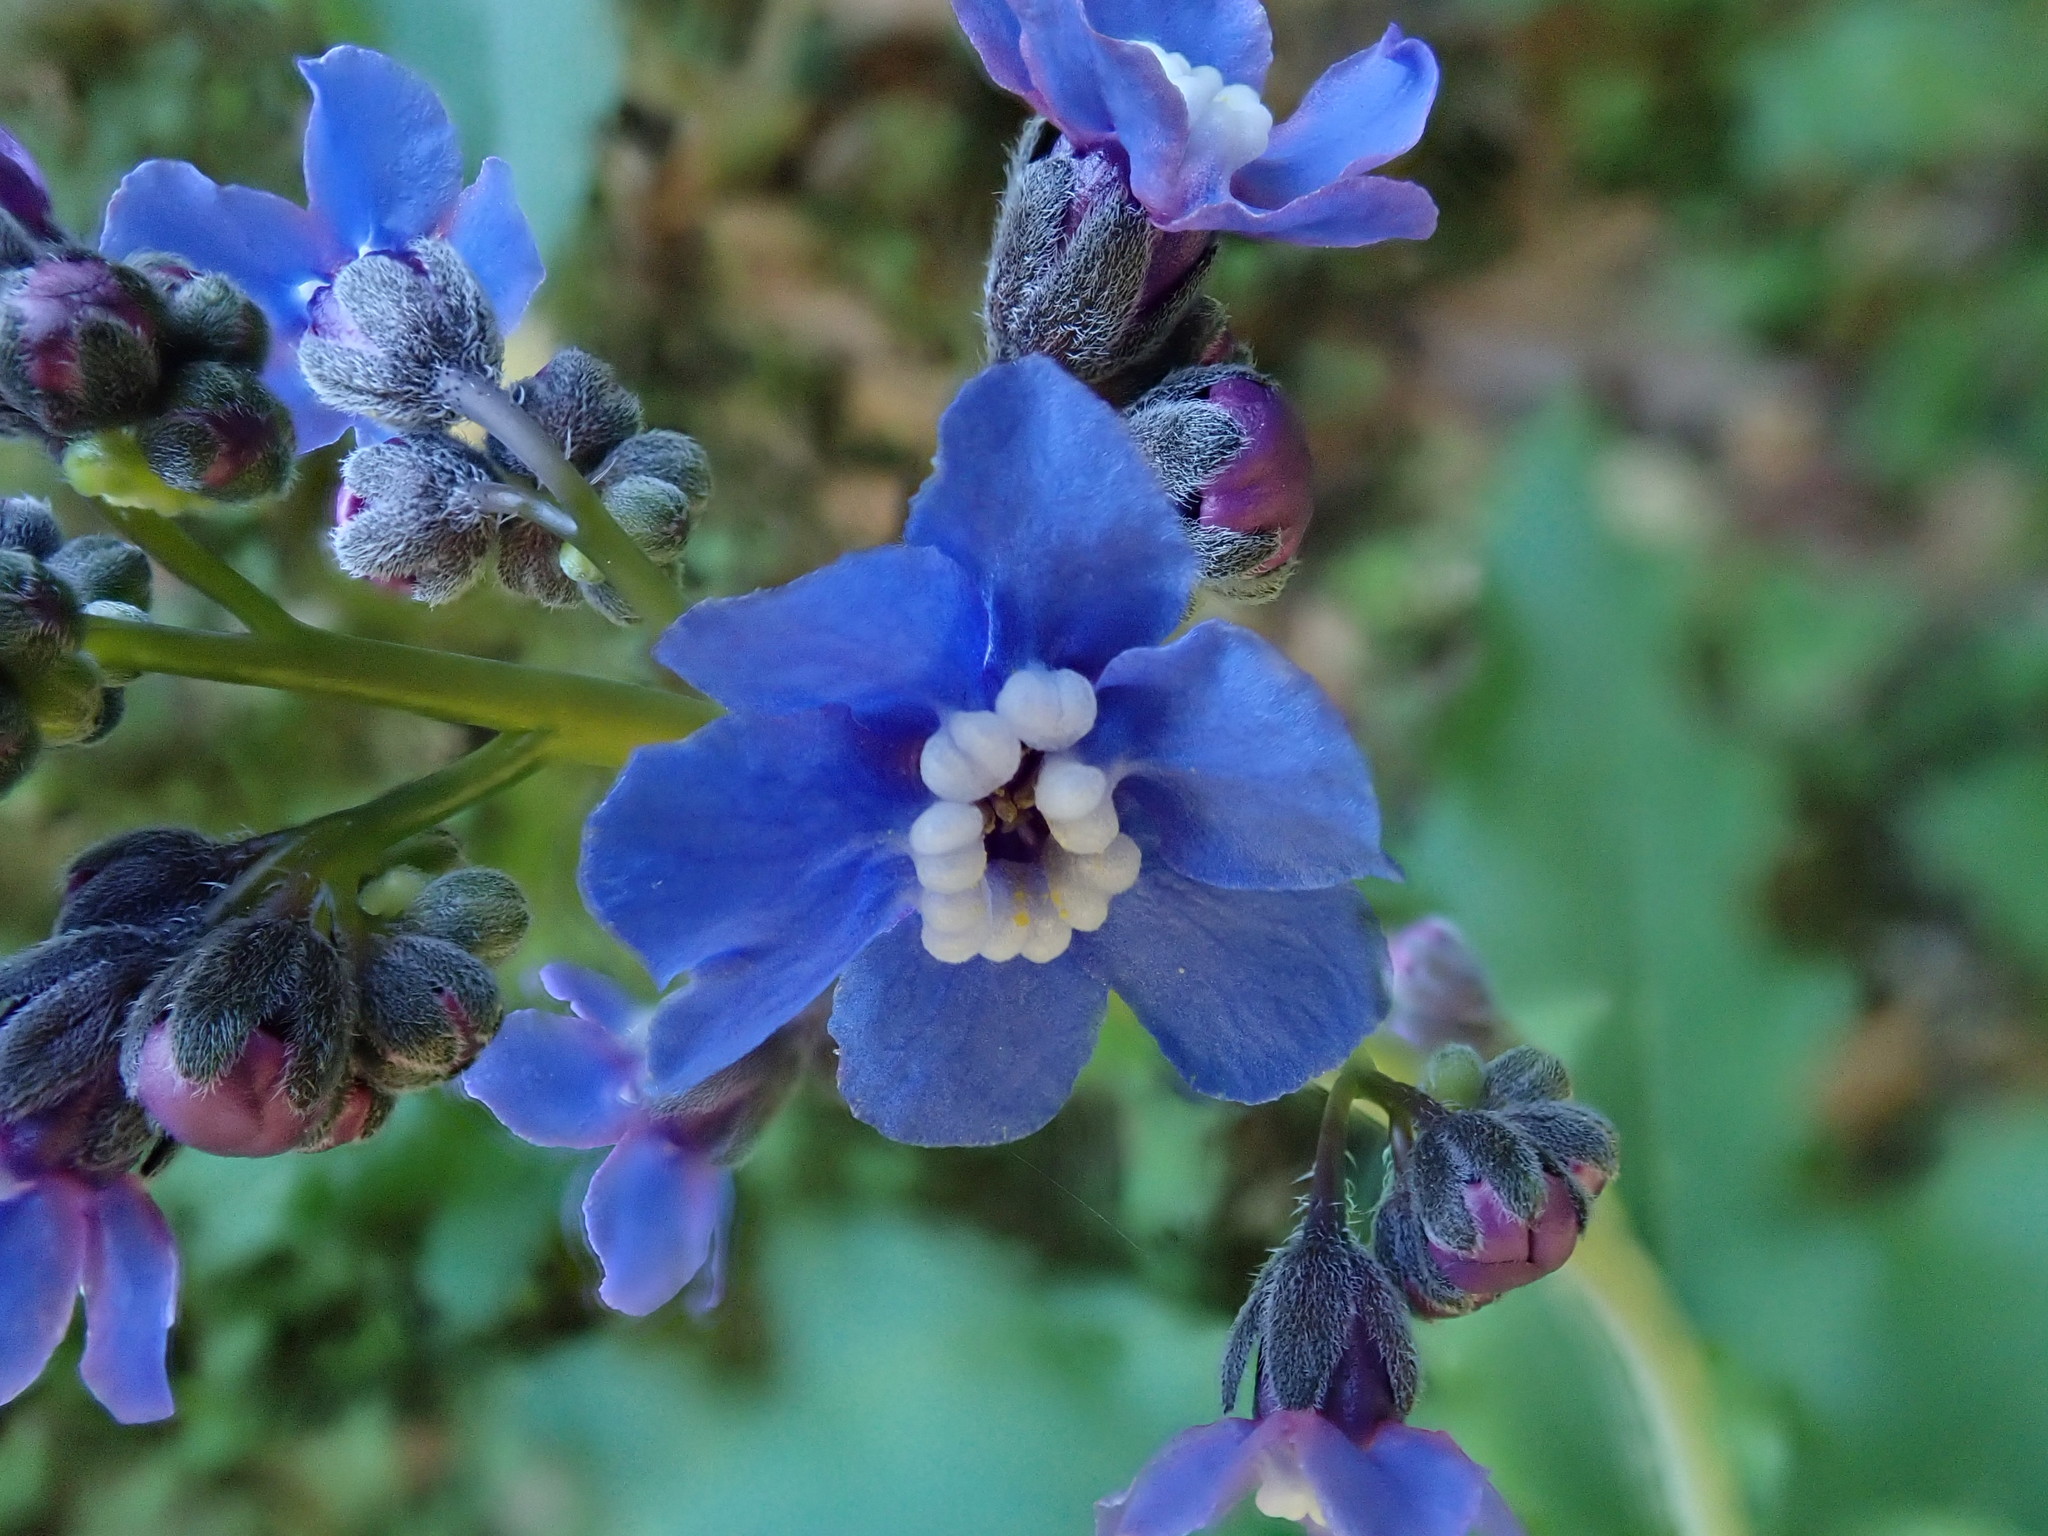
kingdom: Plantae
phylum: Tracheophyta
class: Magnoliopsida
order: Boraginales
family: Boraginaceae
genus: Adelinia
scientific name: Adelinia grande
